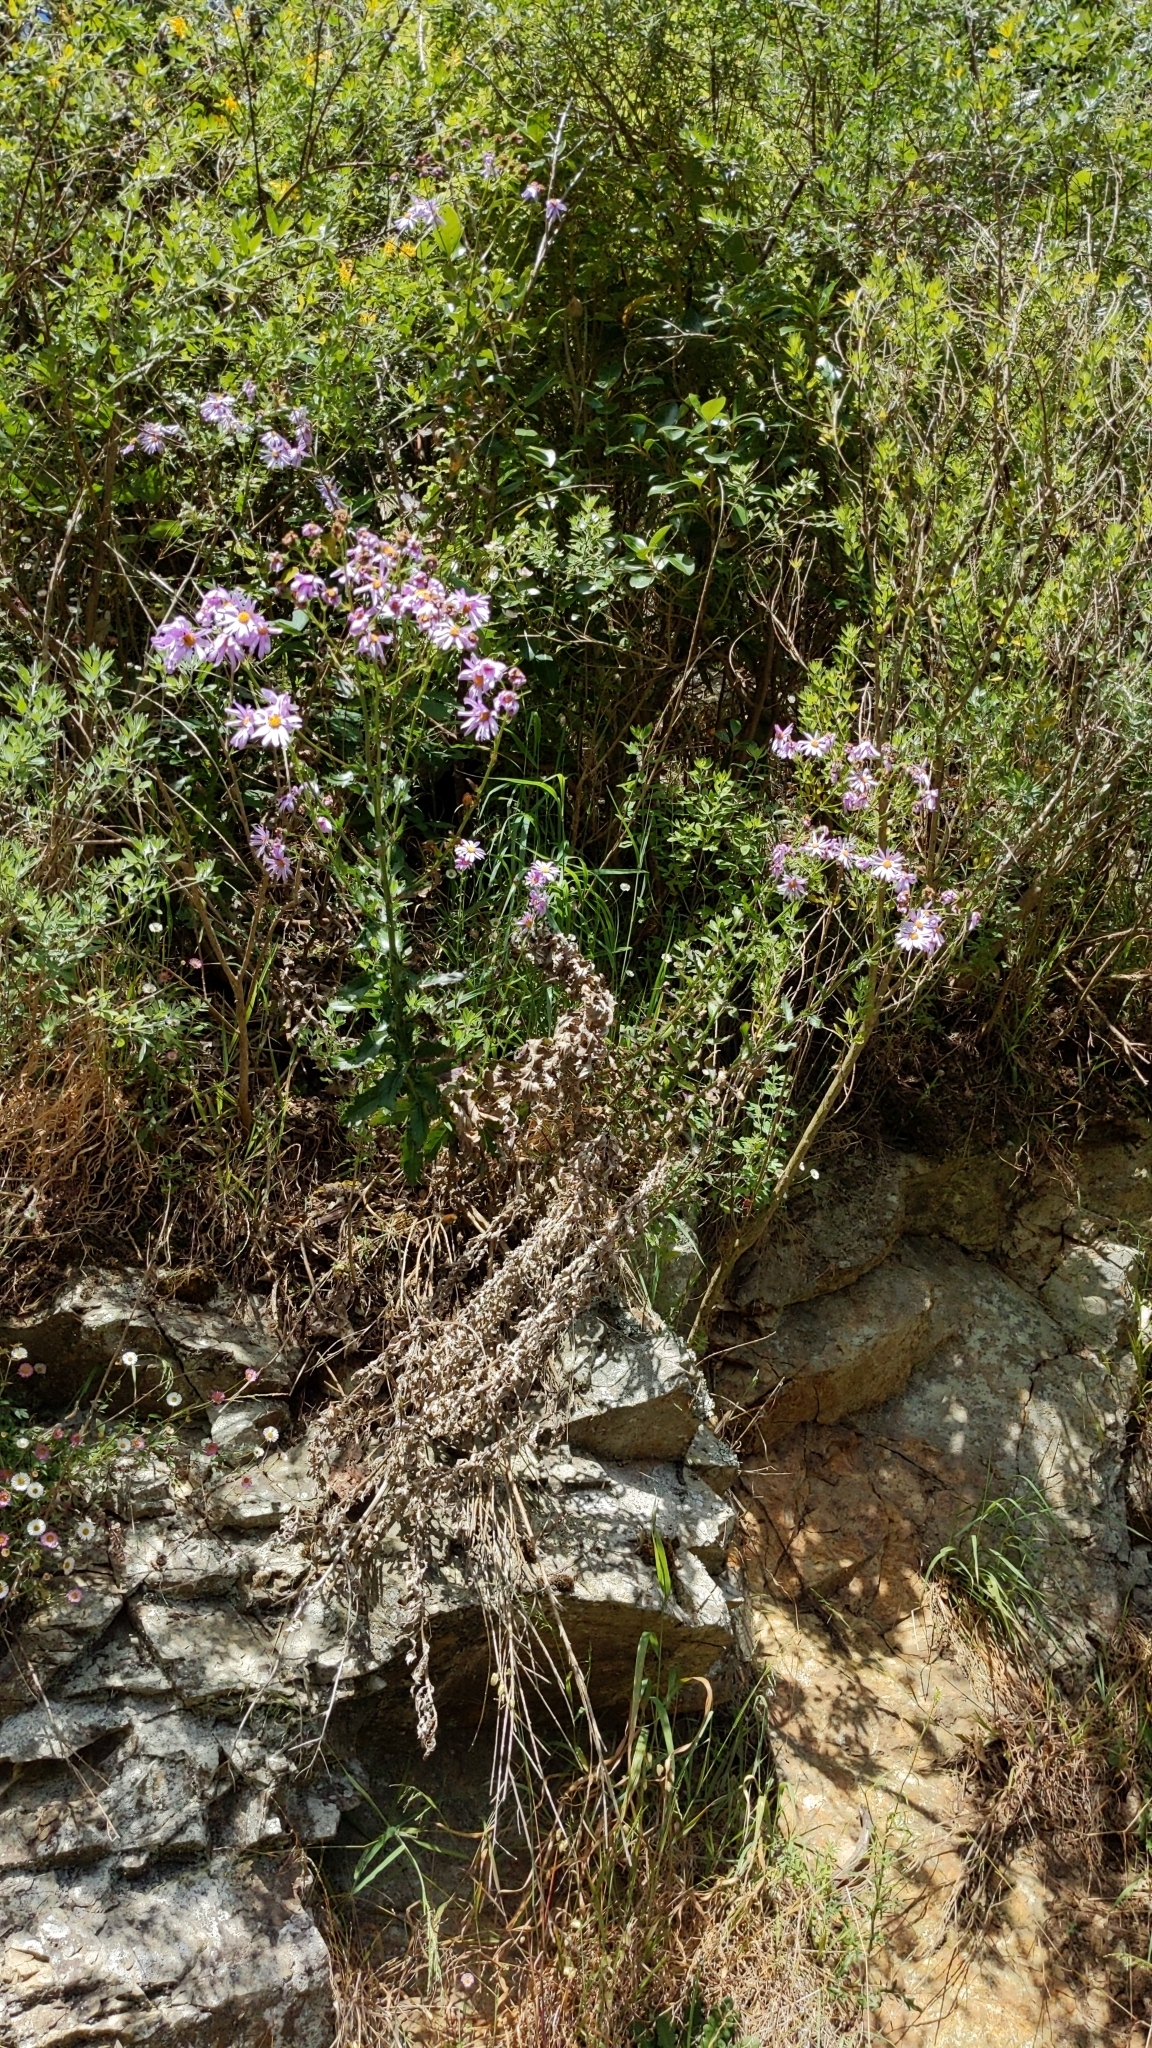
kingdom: Plantae
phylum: Tracheophyta
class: Magnoliopsida
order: Asterales
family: Asteraceae
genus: Senecio
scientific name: Senecio glastifolius
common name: Woad-leaved ragwort
